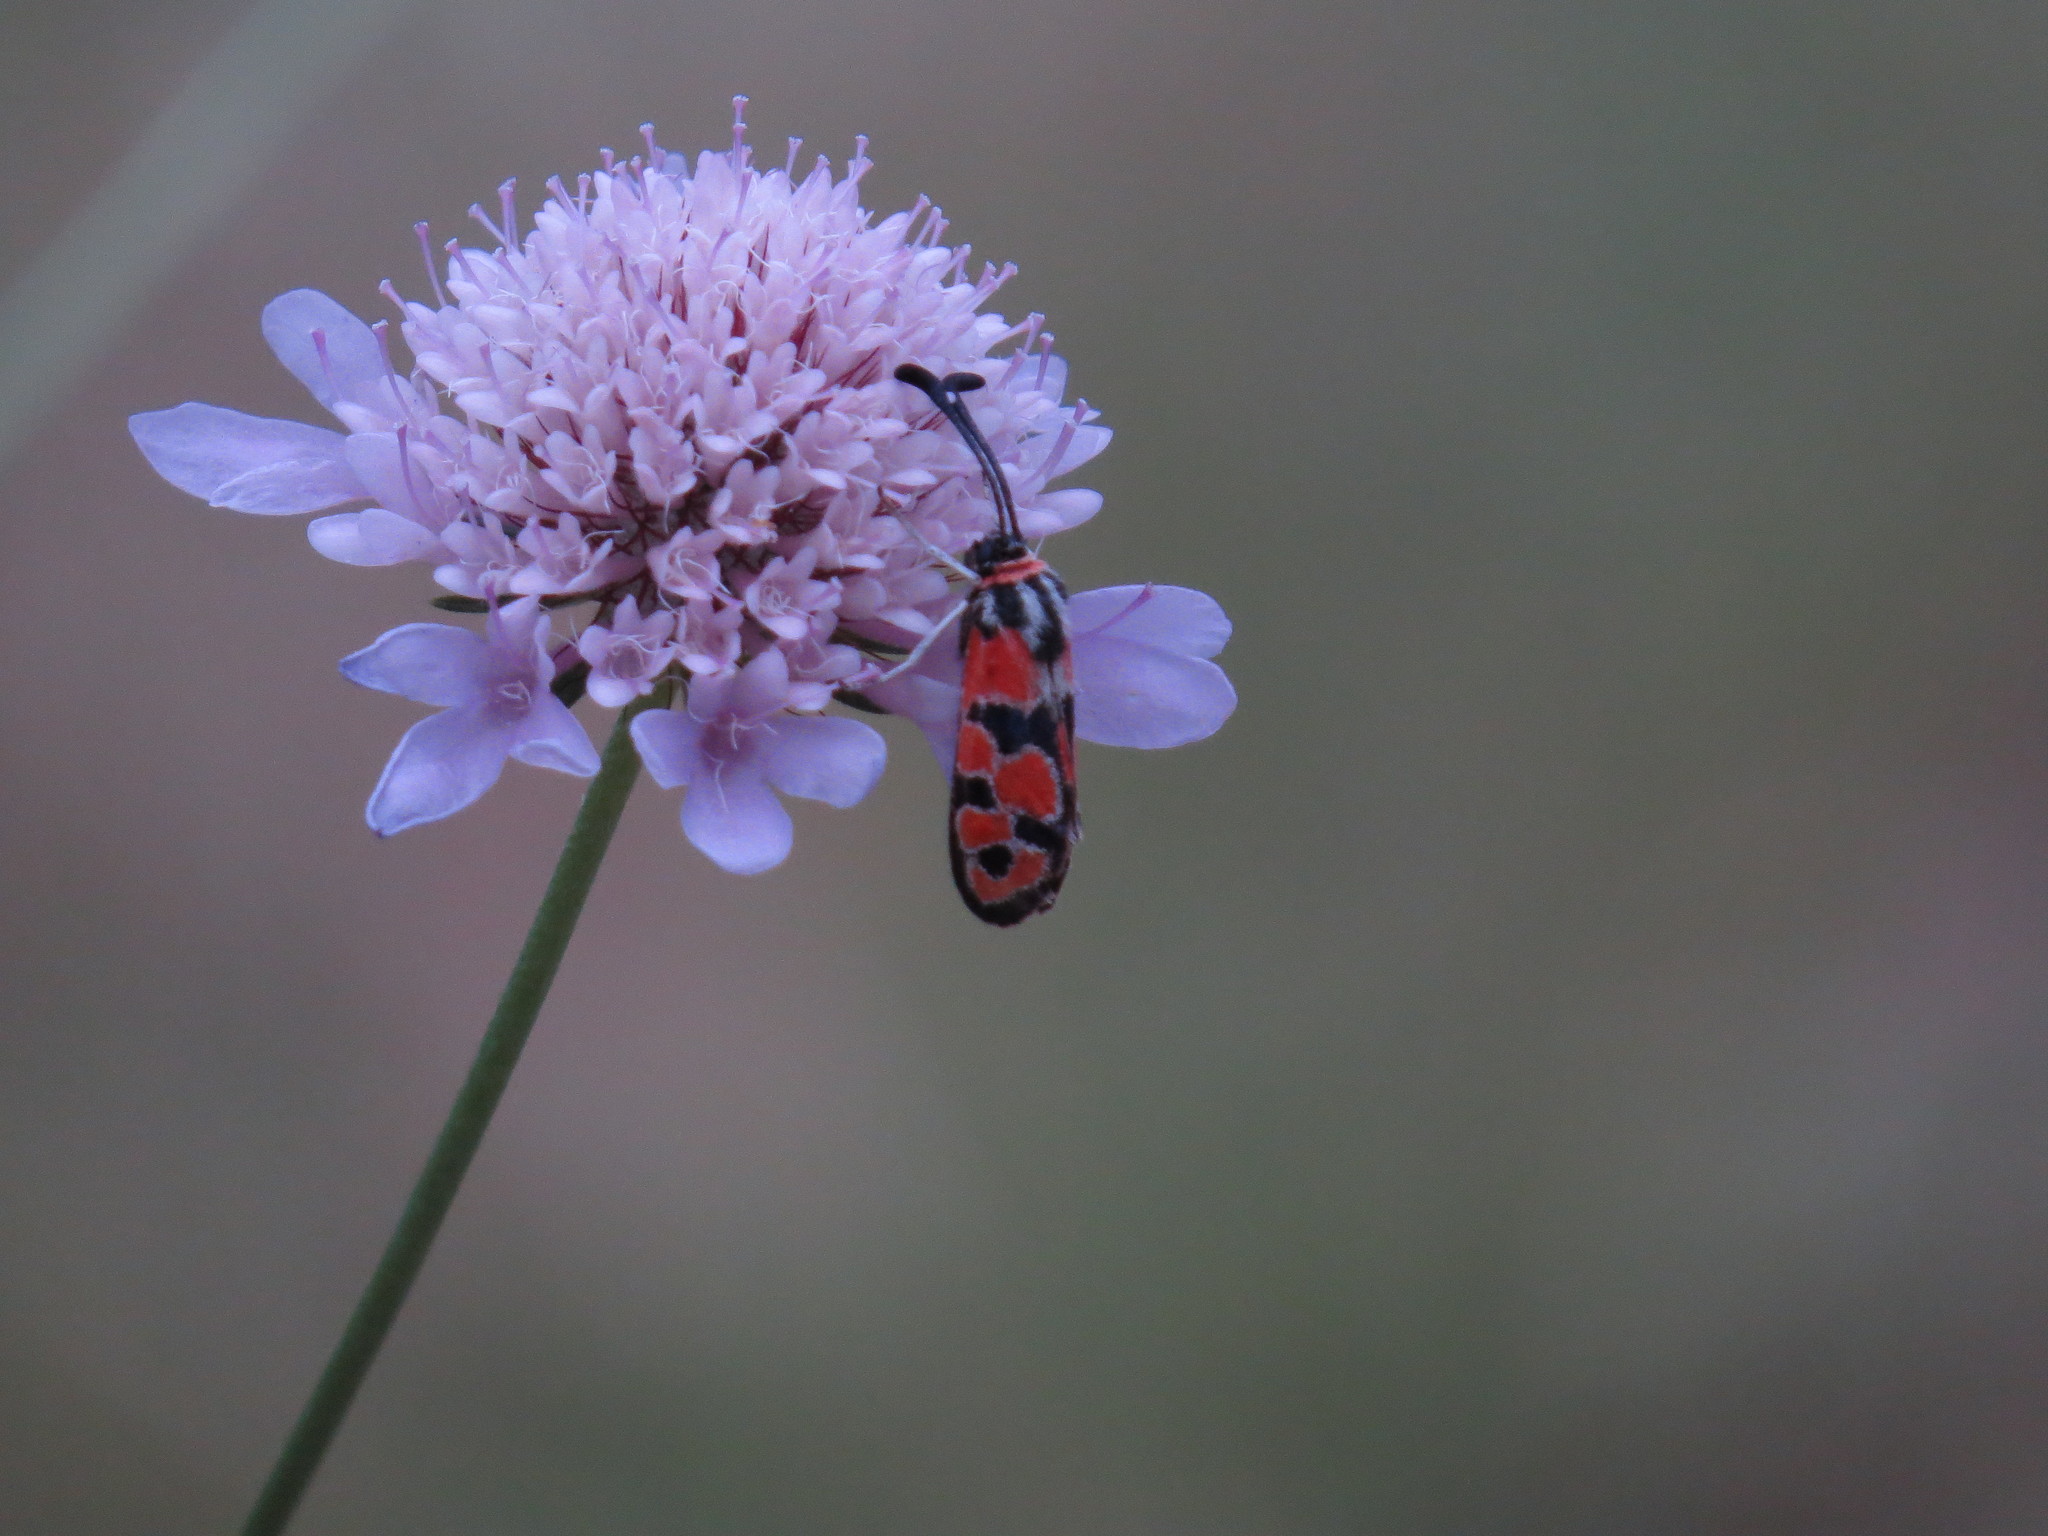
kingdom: Animalia
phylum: Arthropoda
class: Insecta
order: Lepidoptera
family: Zygaenidae
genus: Zygaena
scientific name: Zygaena fausta
